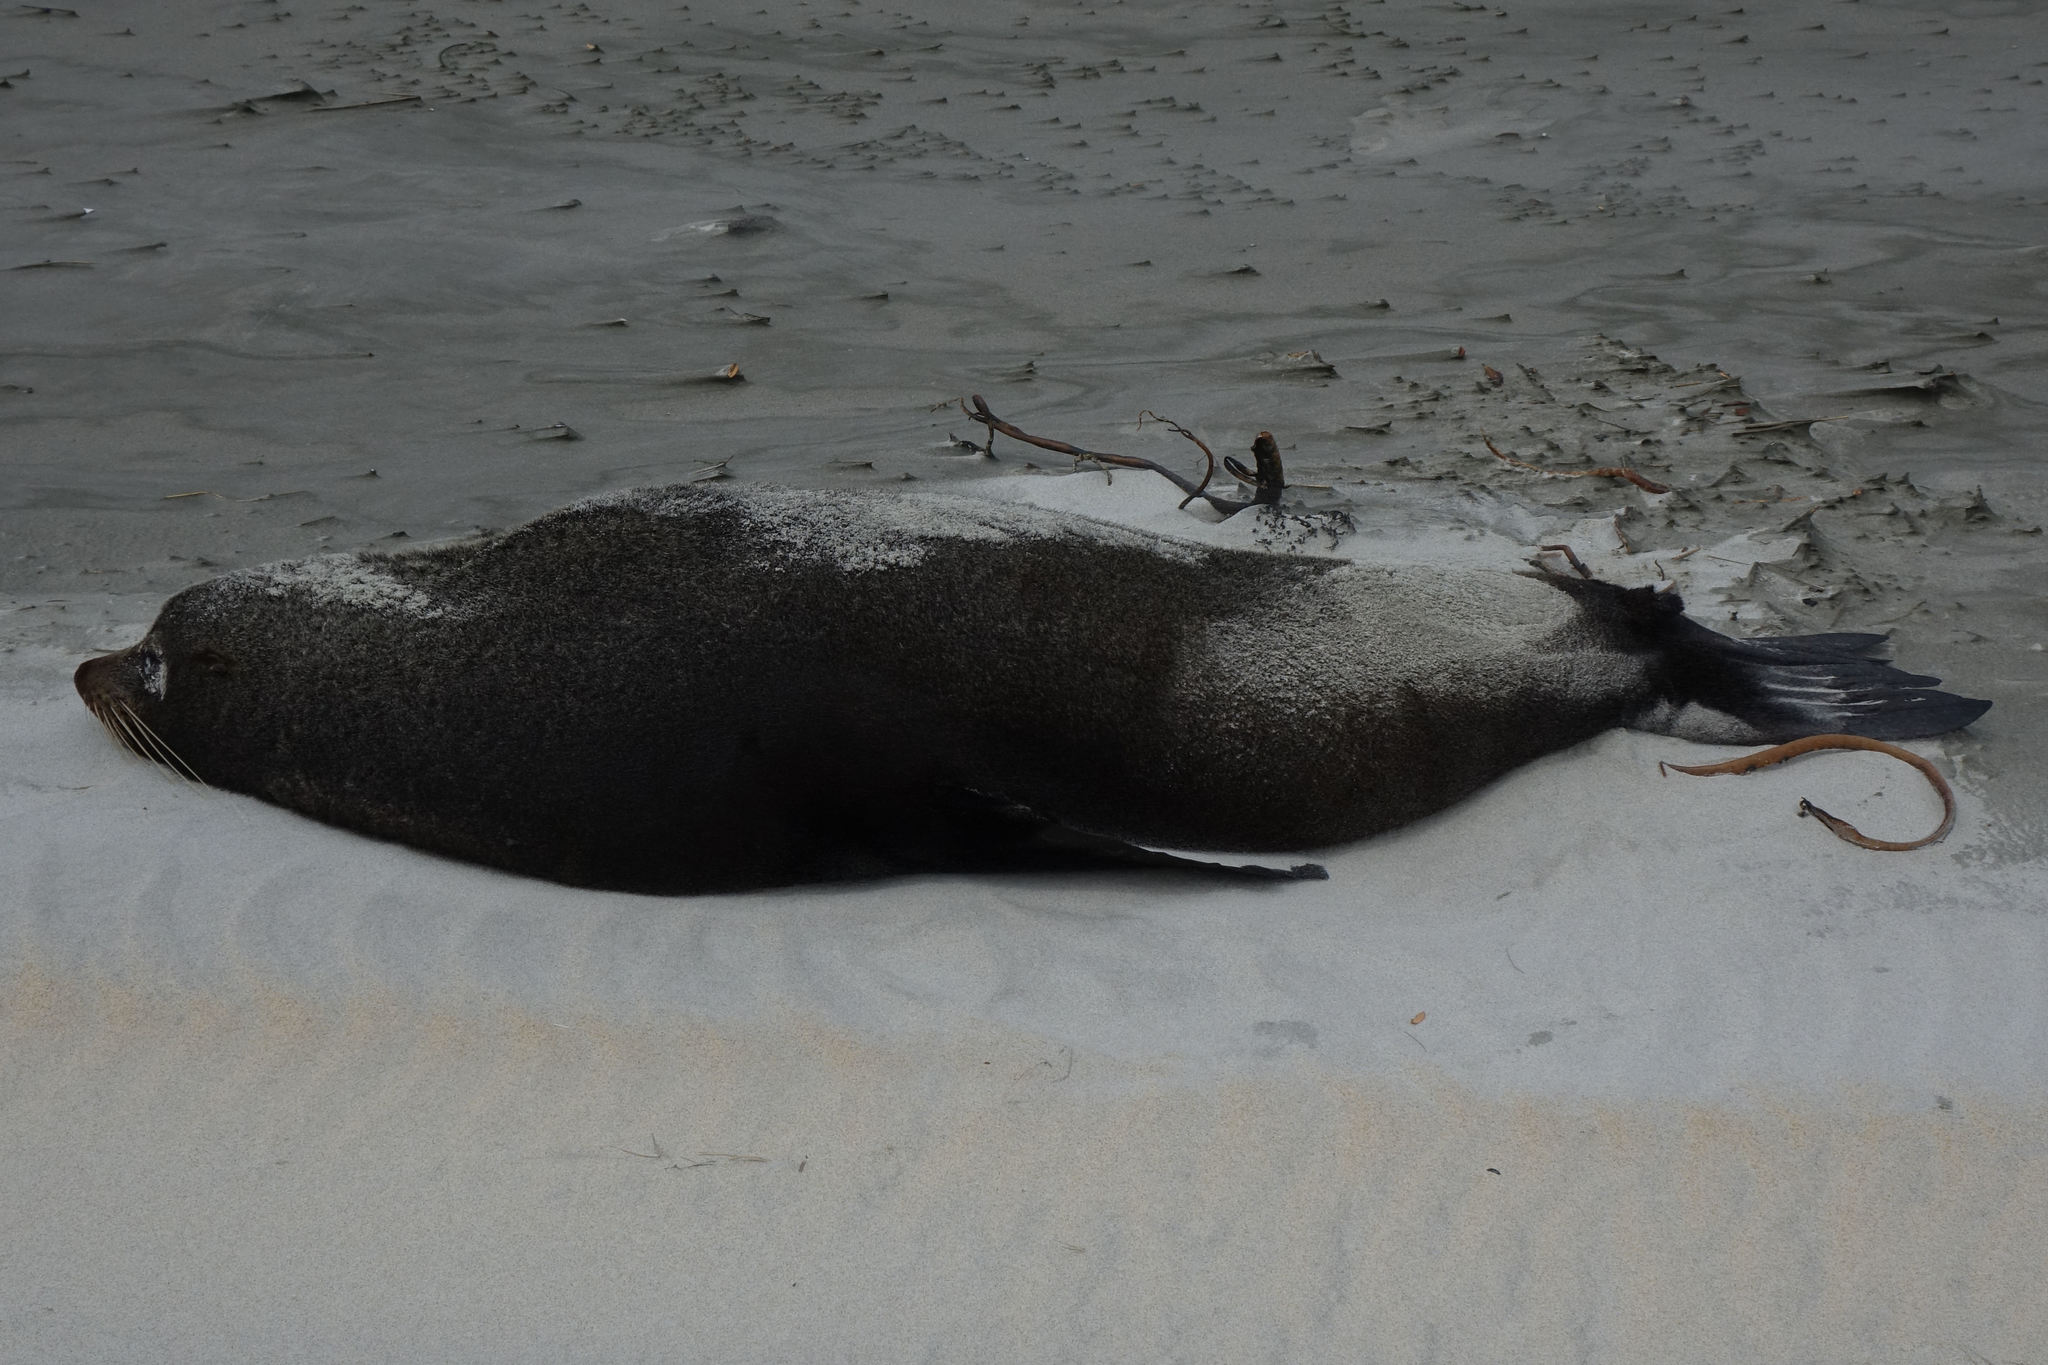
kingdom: Animalia
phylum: Chordata
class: Mammalia
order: Carnivora
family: Otariidae
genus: Arctocephalus
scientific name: Arctocephalus forsteri
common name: New zealand fur seal
